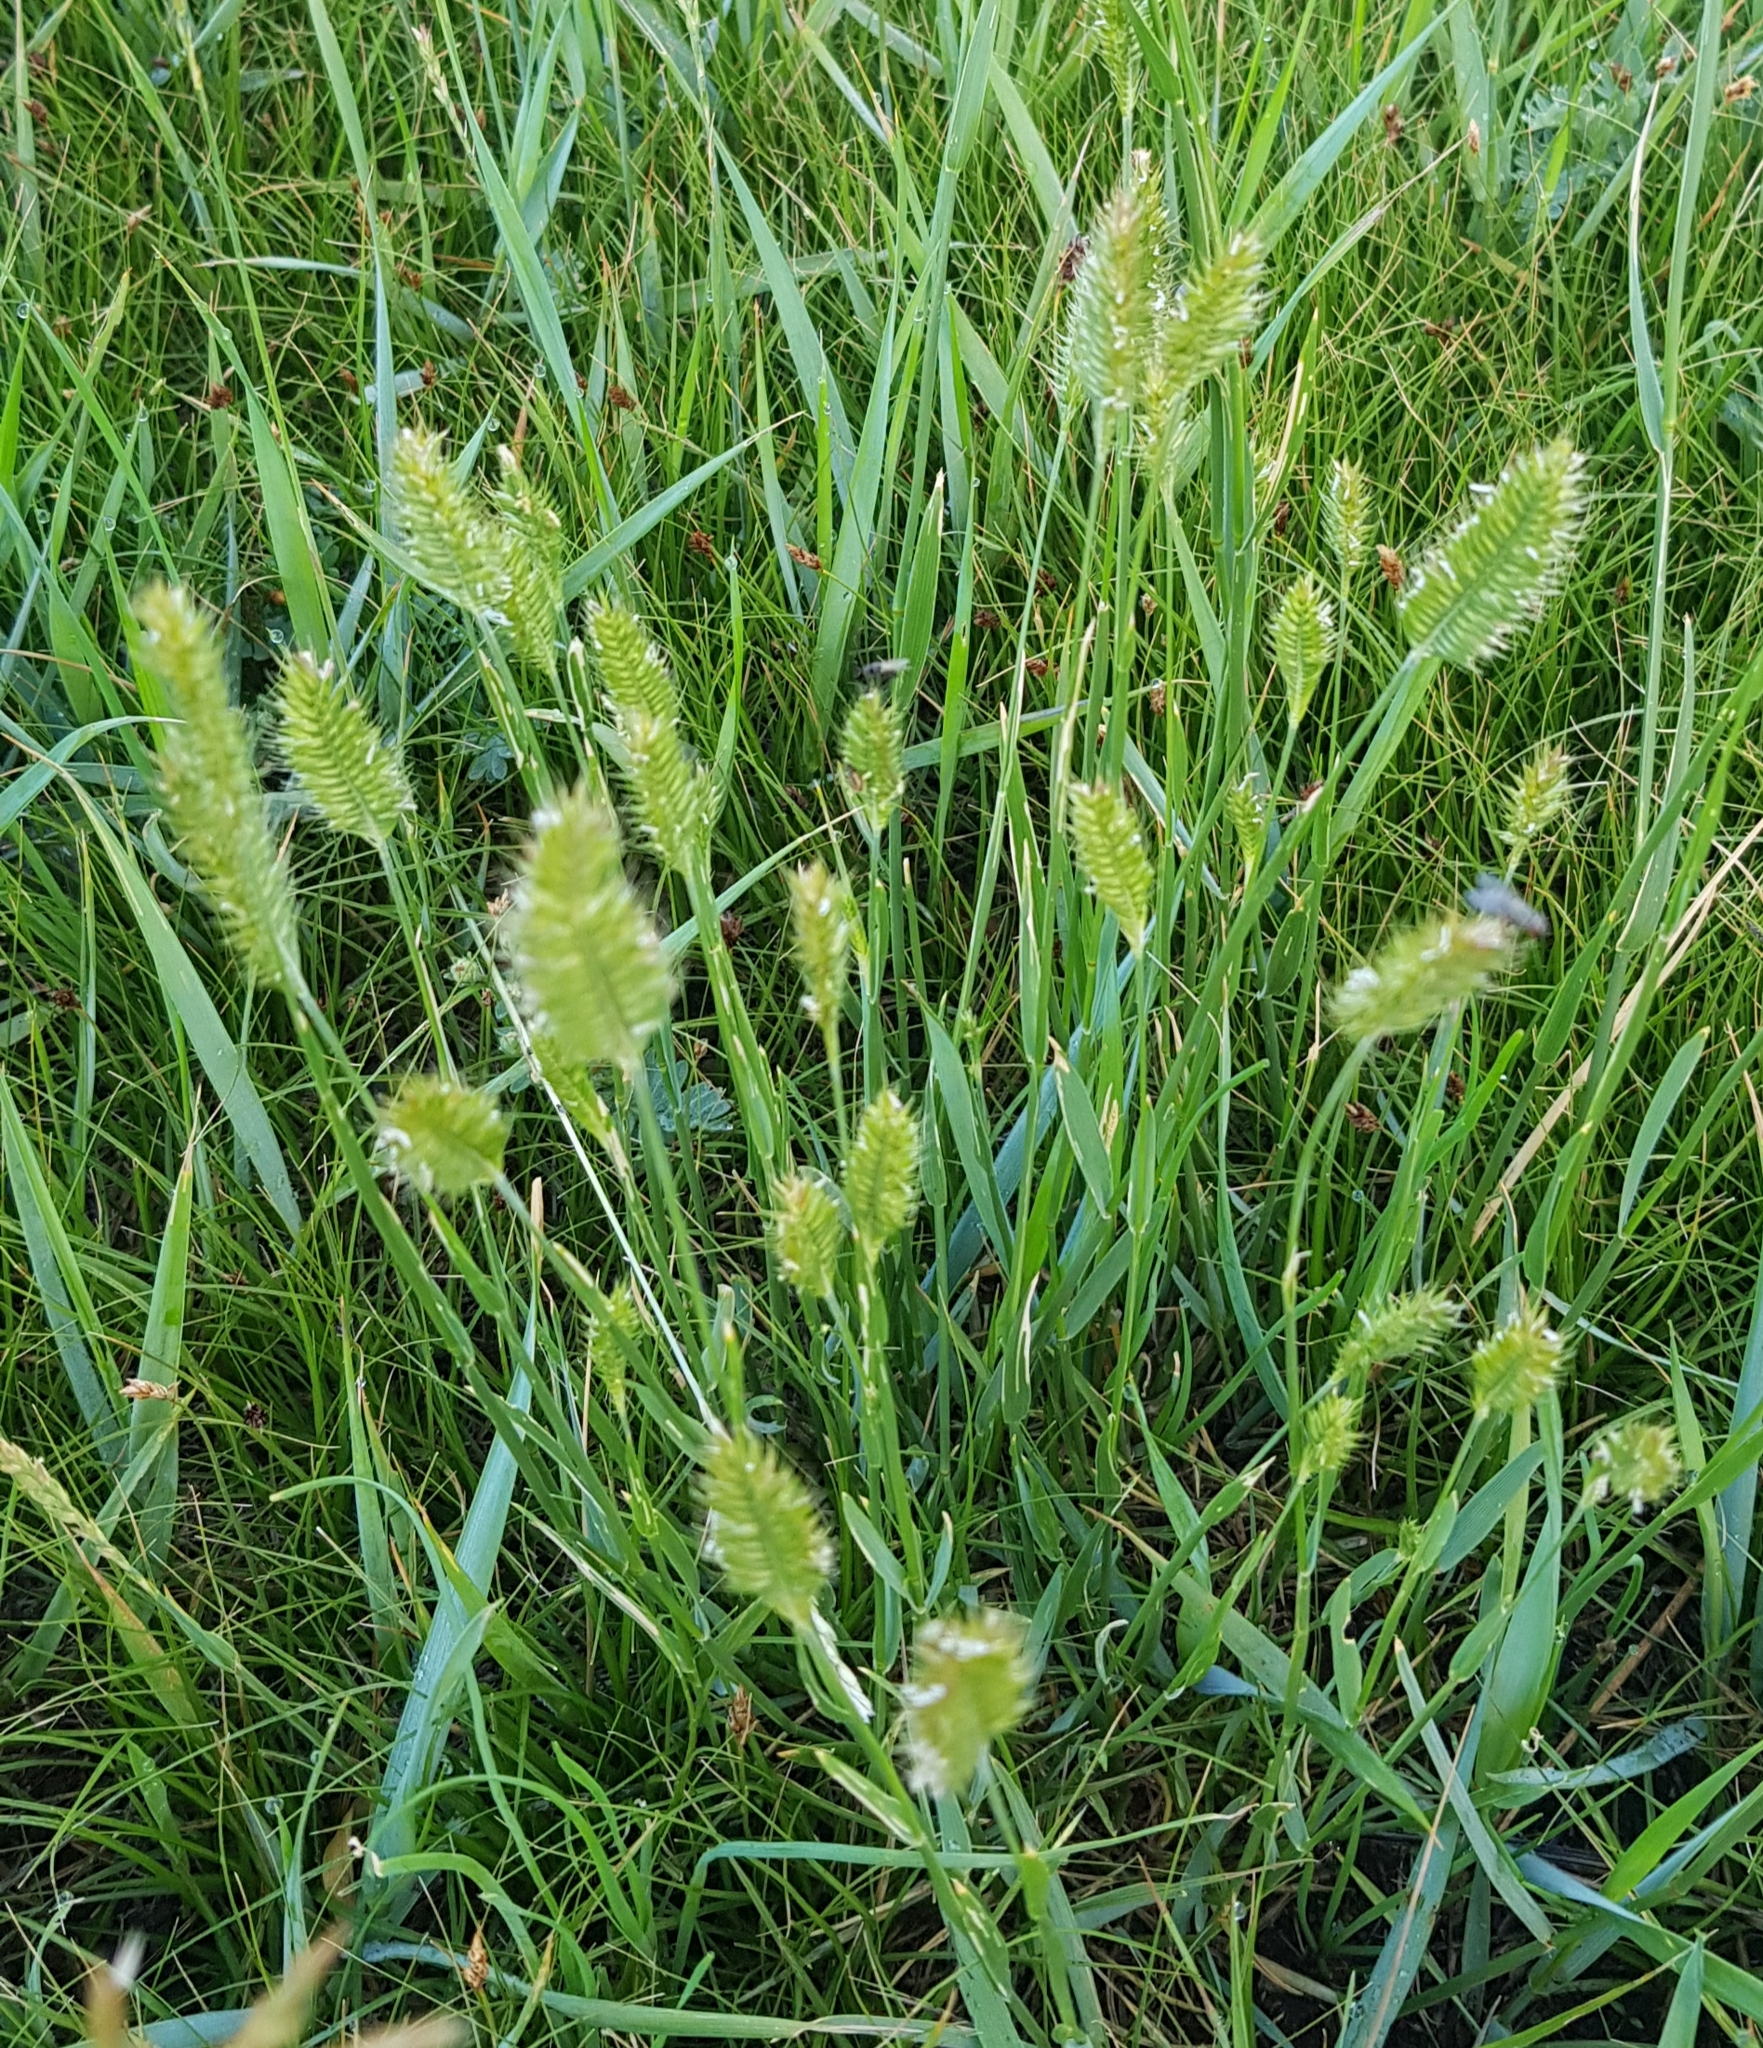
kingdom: Plantae
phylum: Tracheophyta
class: Liliopsida
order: Poales
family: Poaceae
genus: Agropyron
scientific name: Agropyron cristatum
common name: Crested wheatgrass
